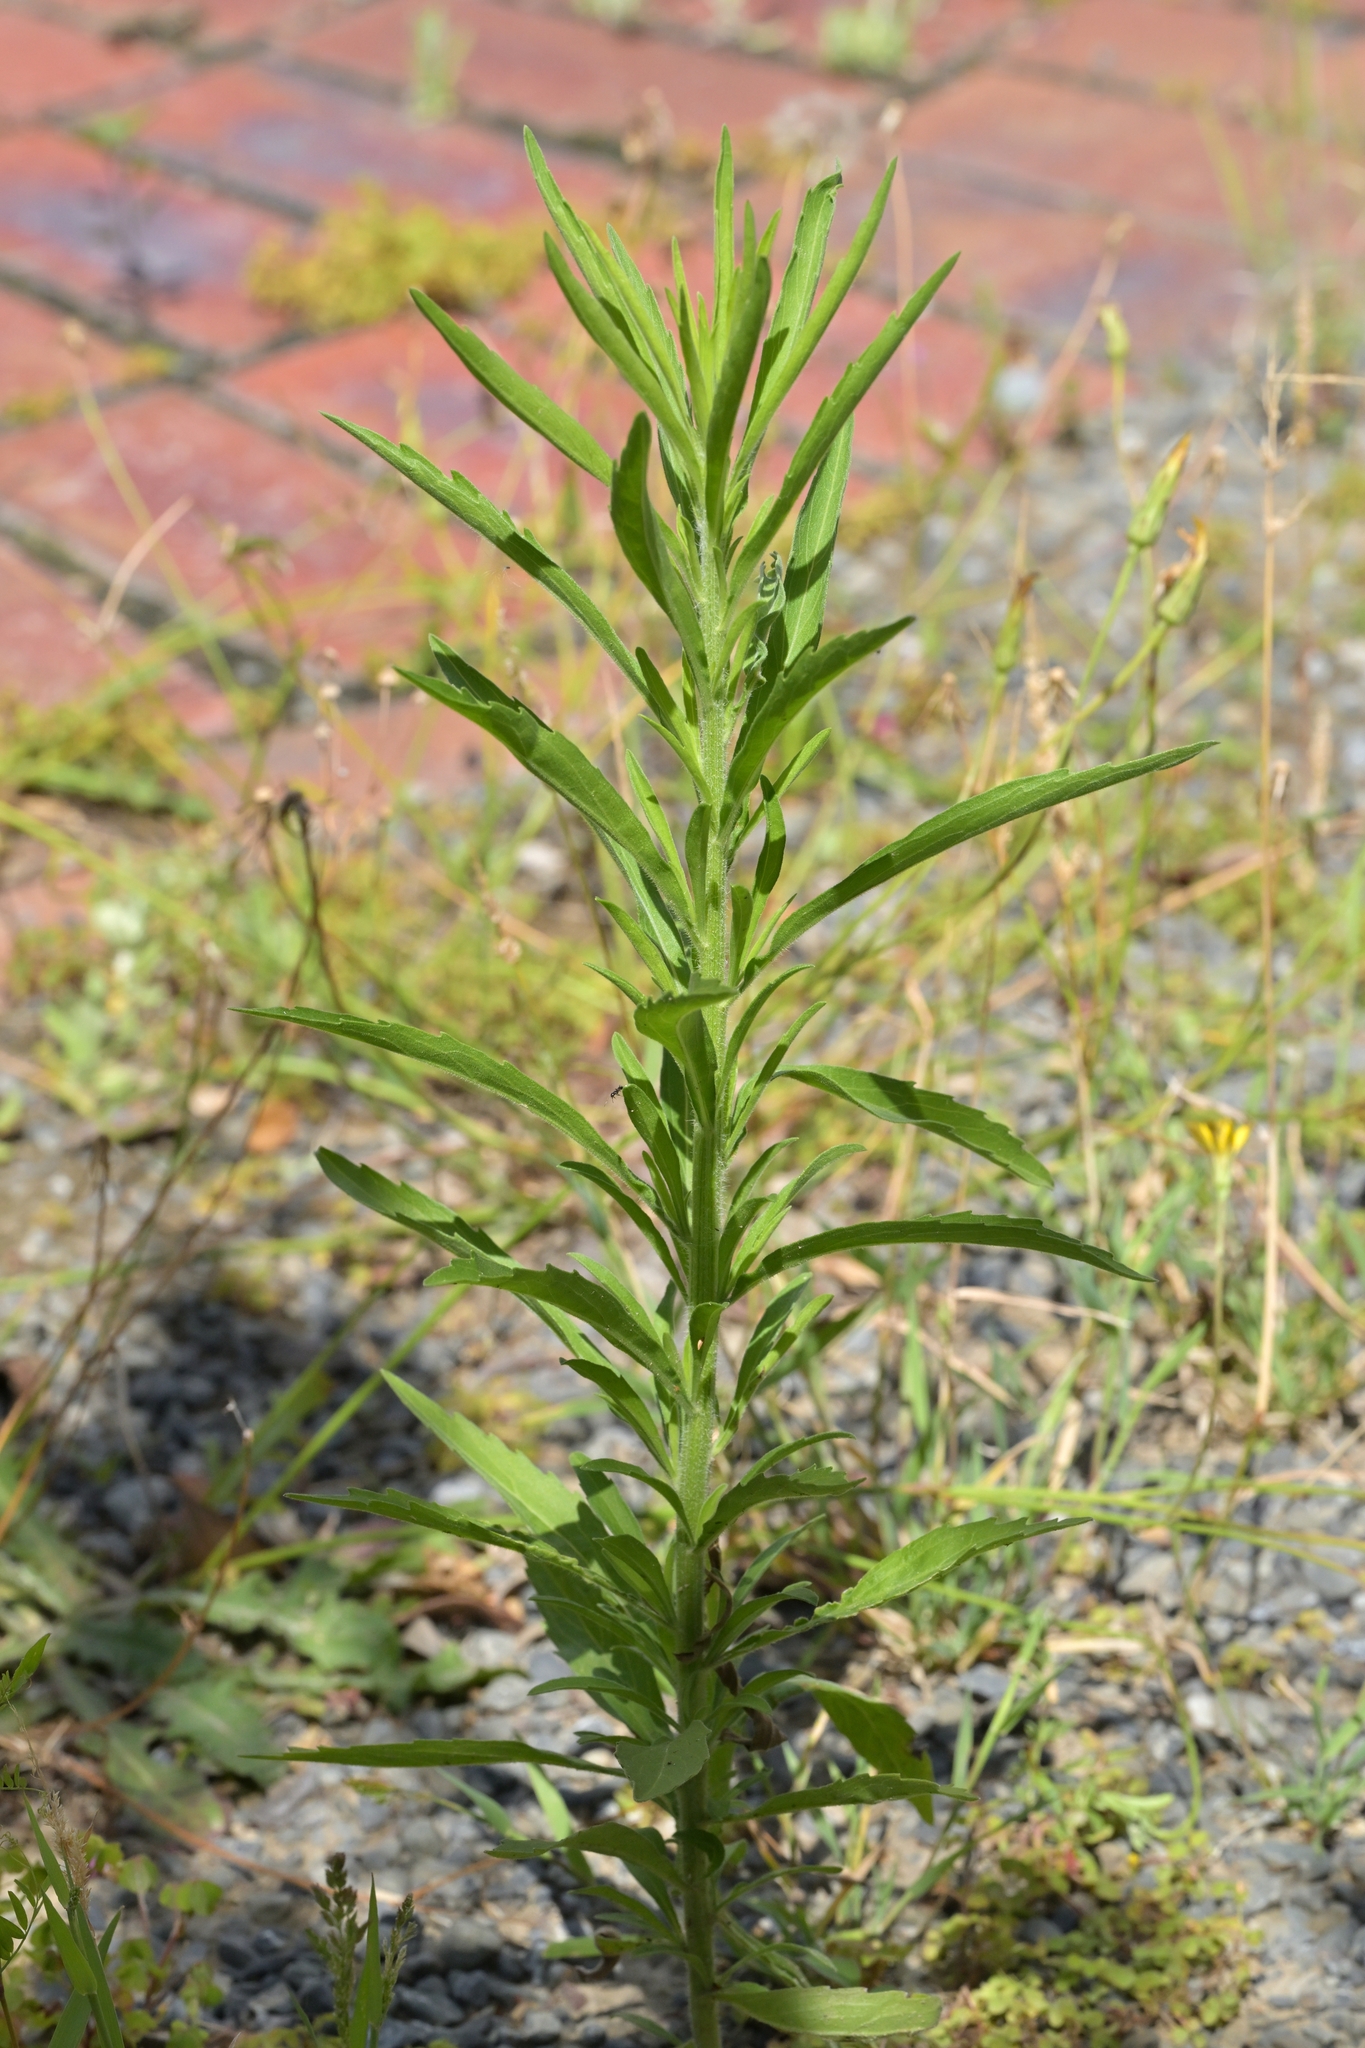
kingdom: Plantae
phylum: Tracheophyta
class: Magnoliopsida
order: Asterales
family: Asteraceae
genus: Erigeron
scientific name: Erigeron sumatrensis
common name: Daisy
